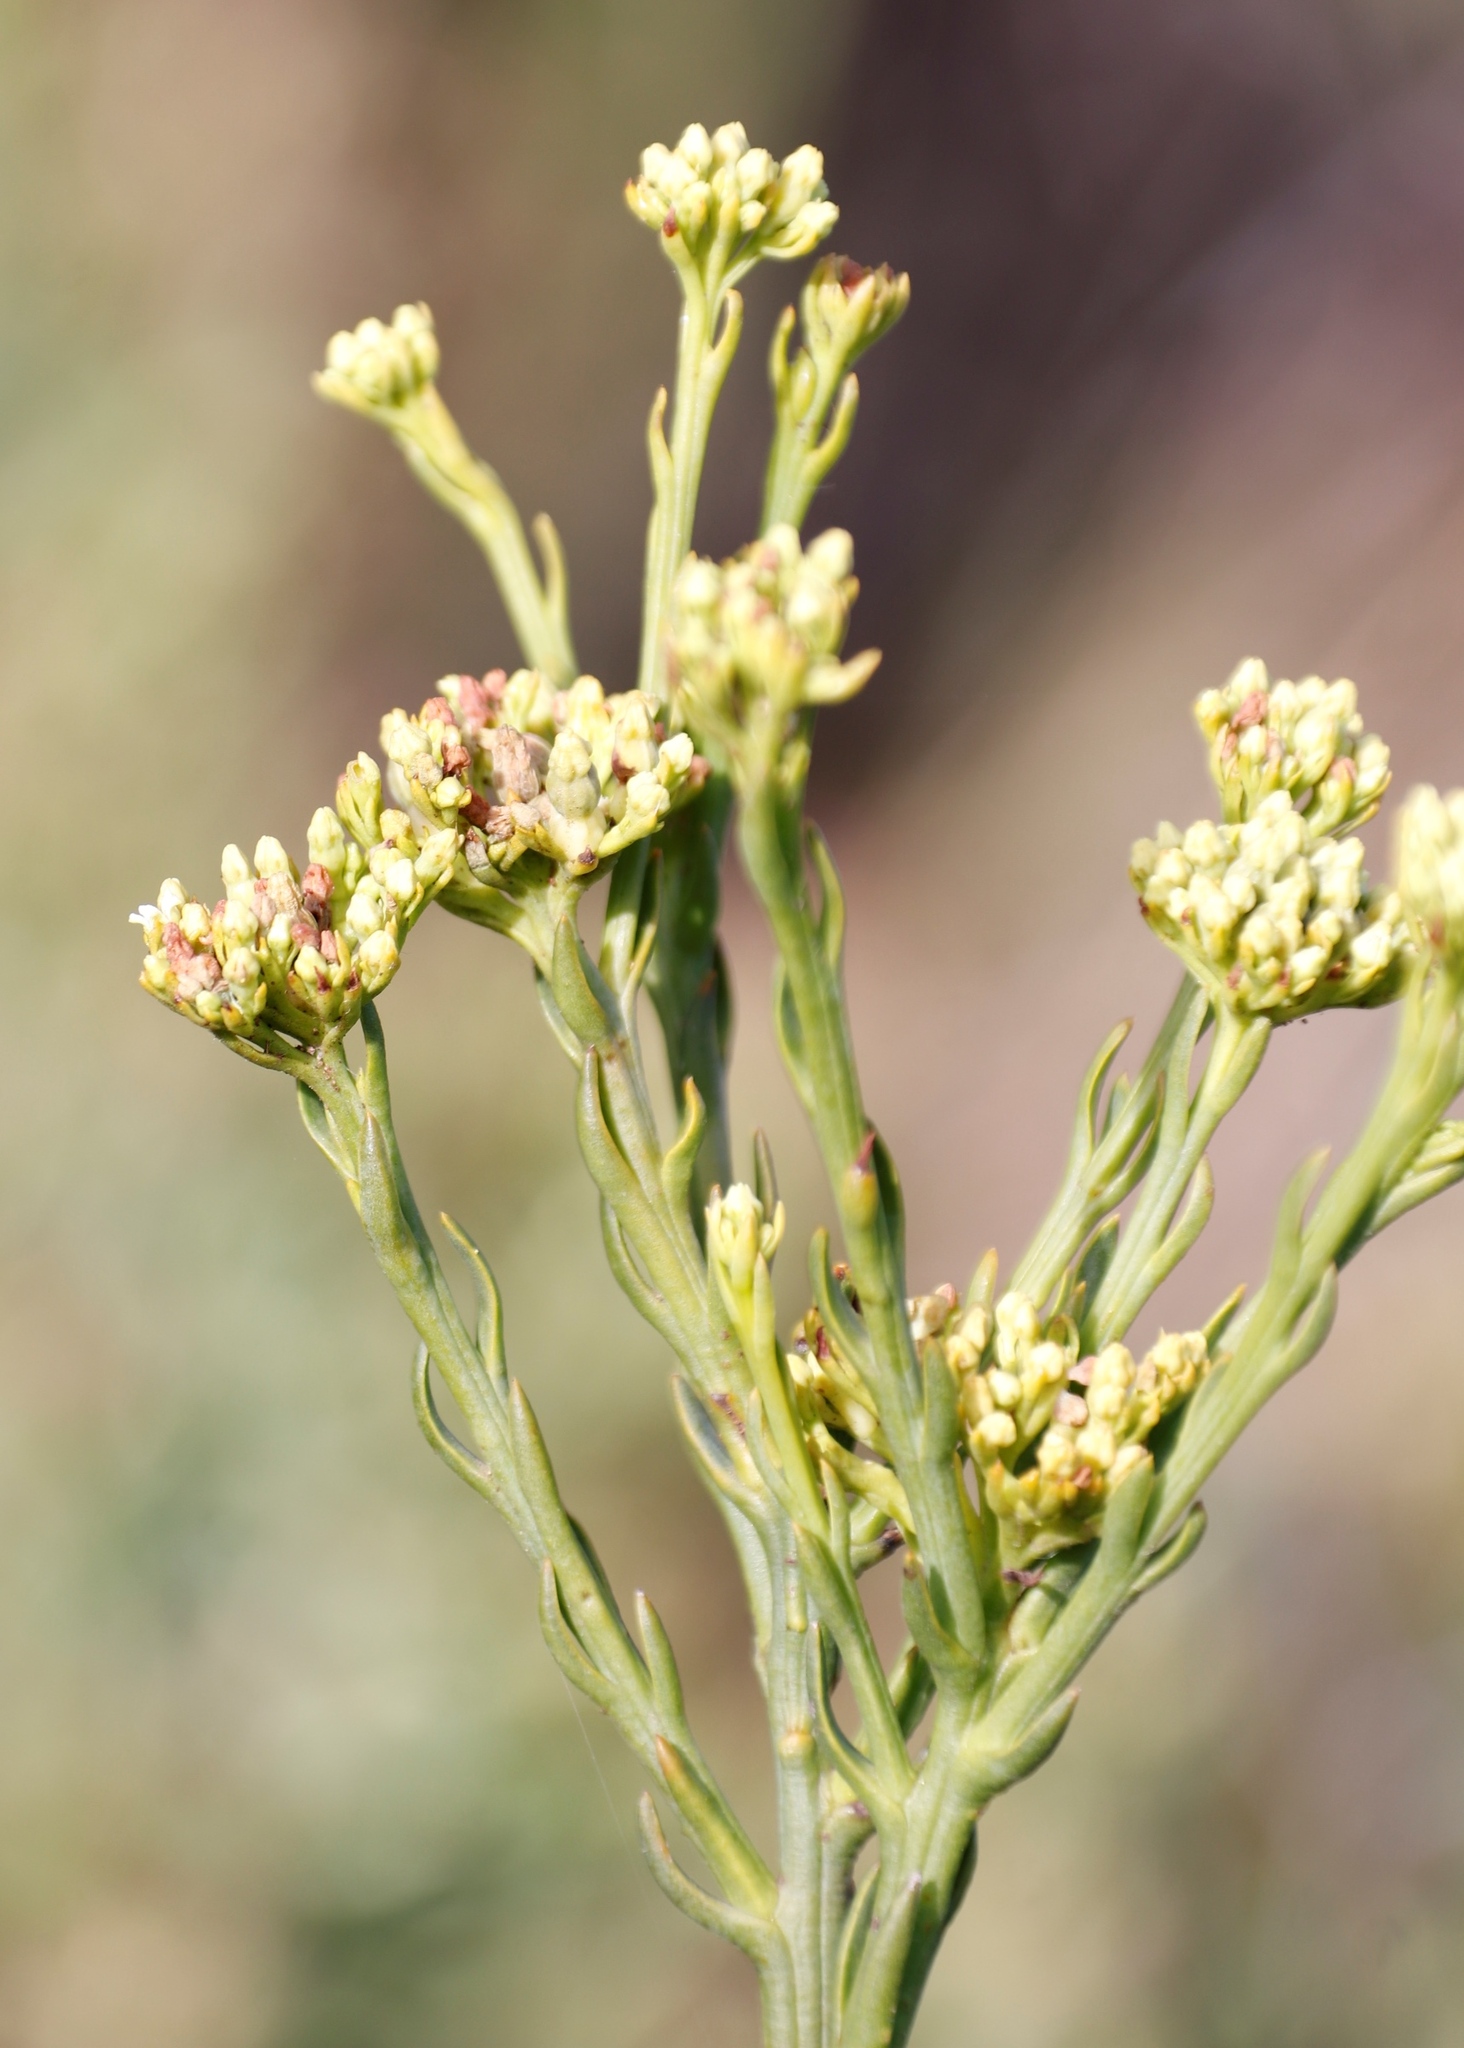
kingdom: Plantae
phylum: Tracheophyta
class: Magnoliopsida
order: Santalales
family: Thesiaceae
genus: Thesium
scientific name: Thesium strictum
